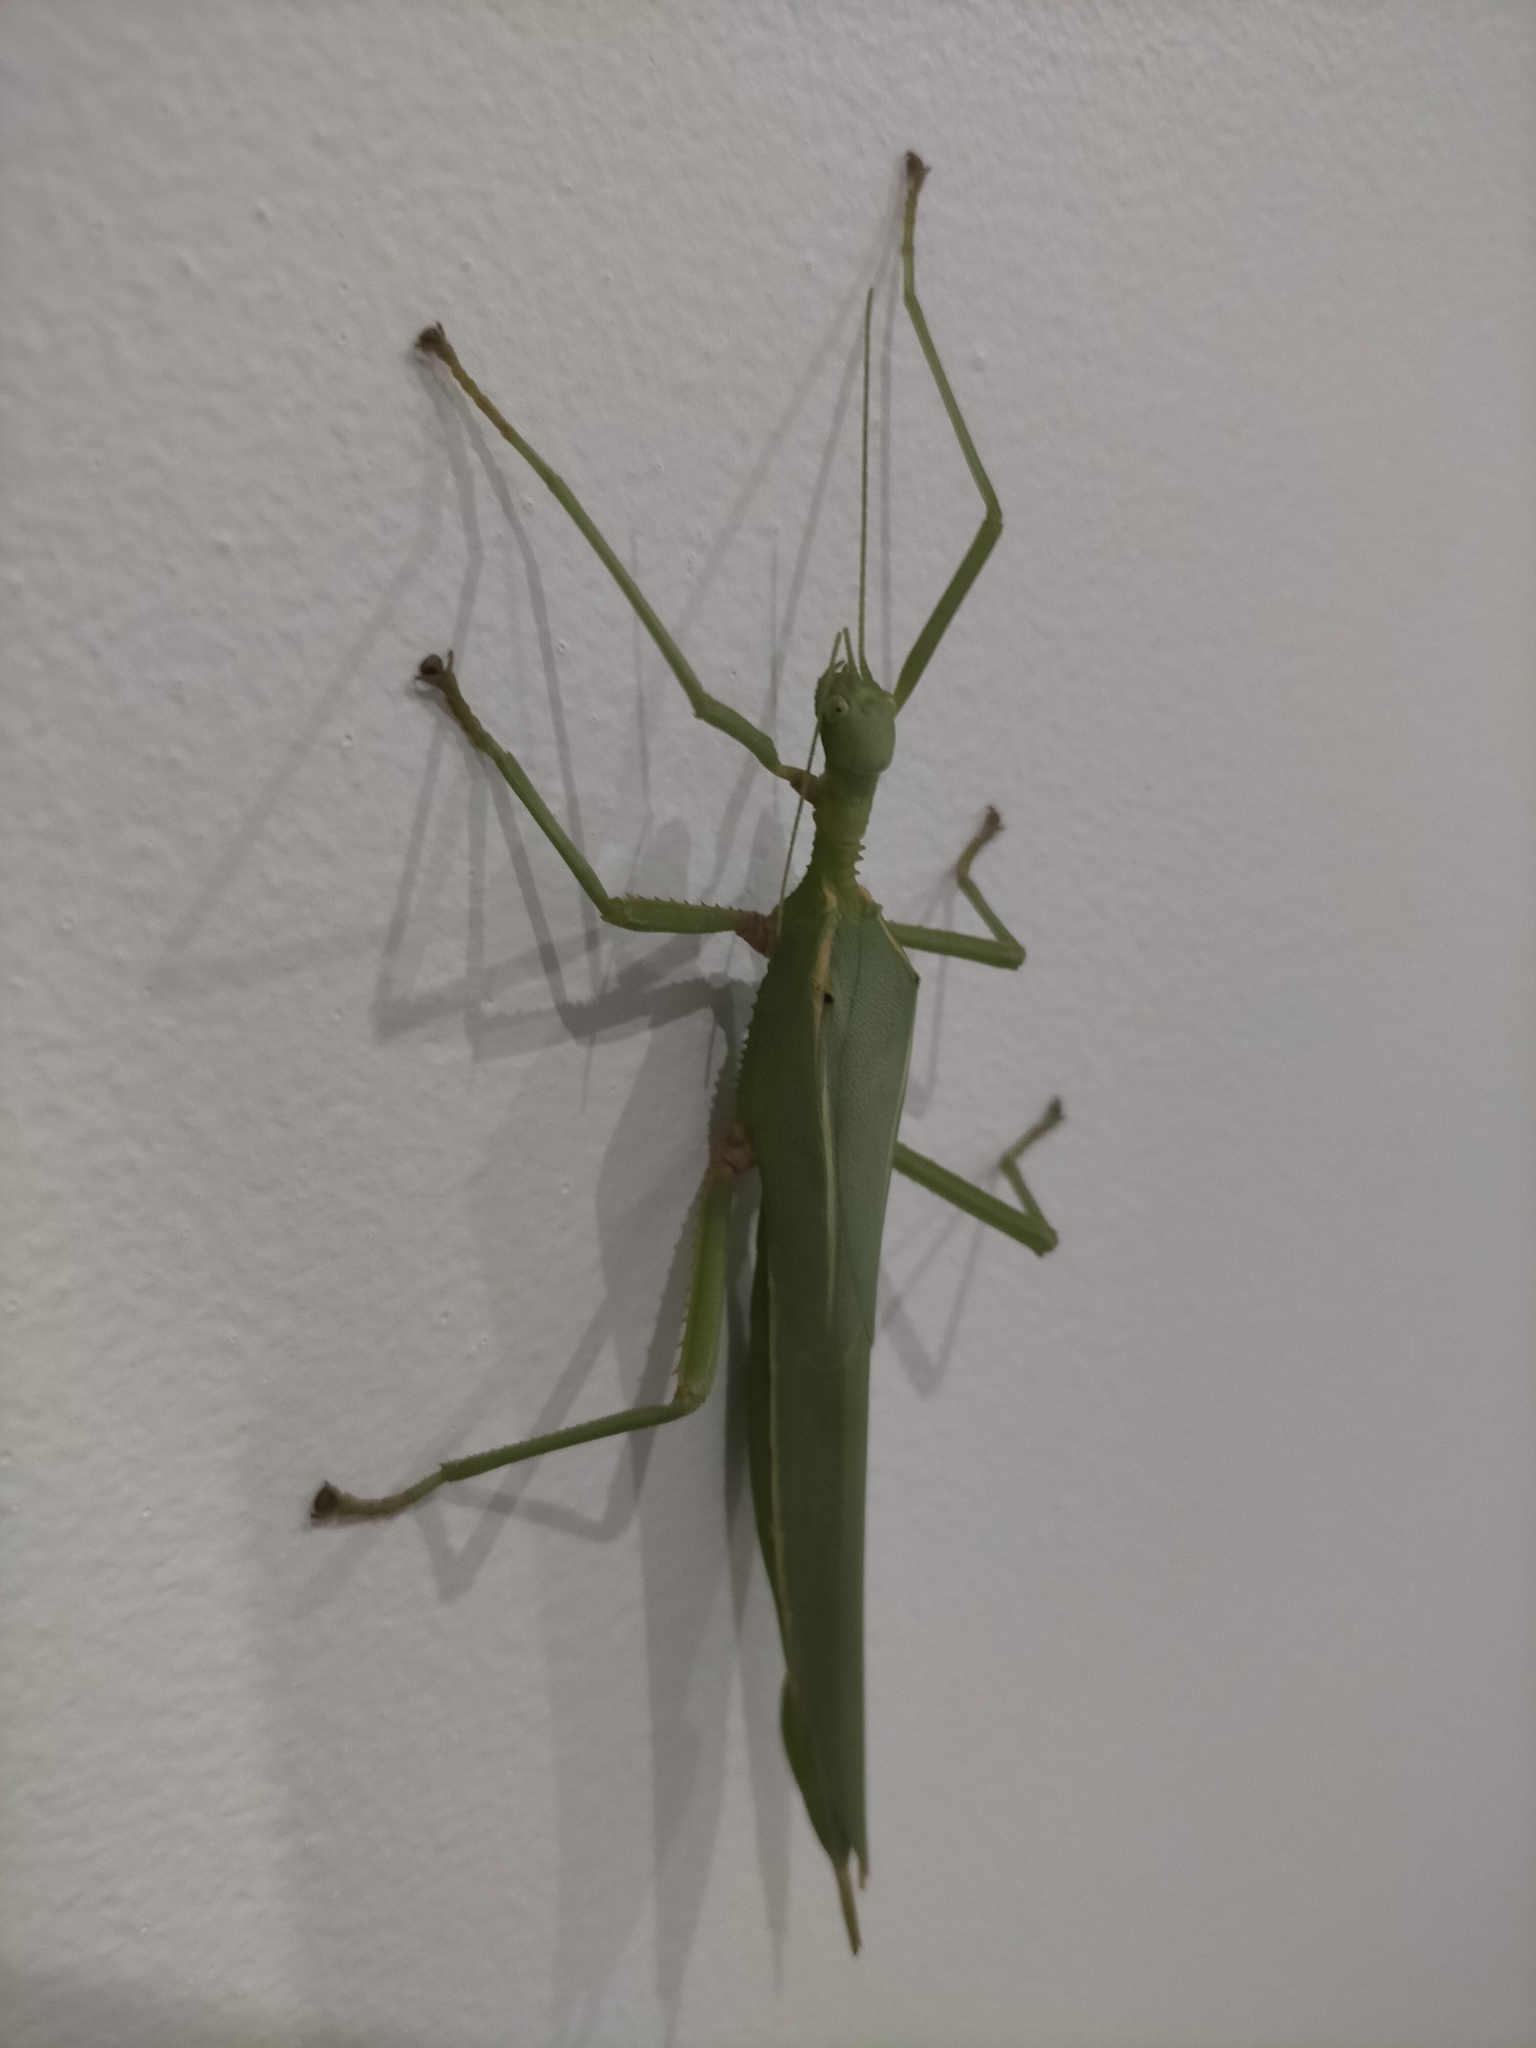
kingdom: Animalia
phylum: Arthropoda
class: Insecta
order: Phasmida
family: Phasmatidae
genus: Podacanthus
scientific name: Podacanthus viridiroseus
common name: Red-winged stick-insect
